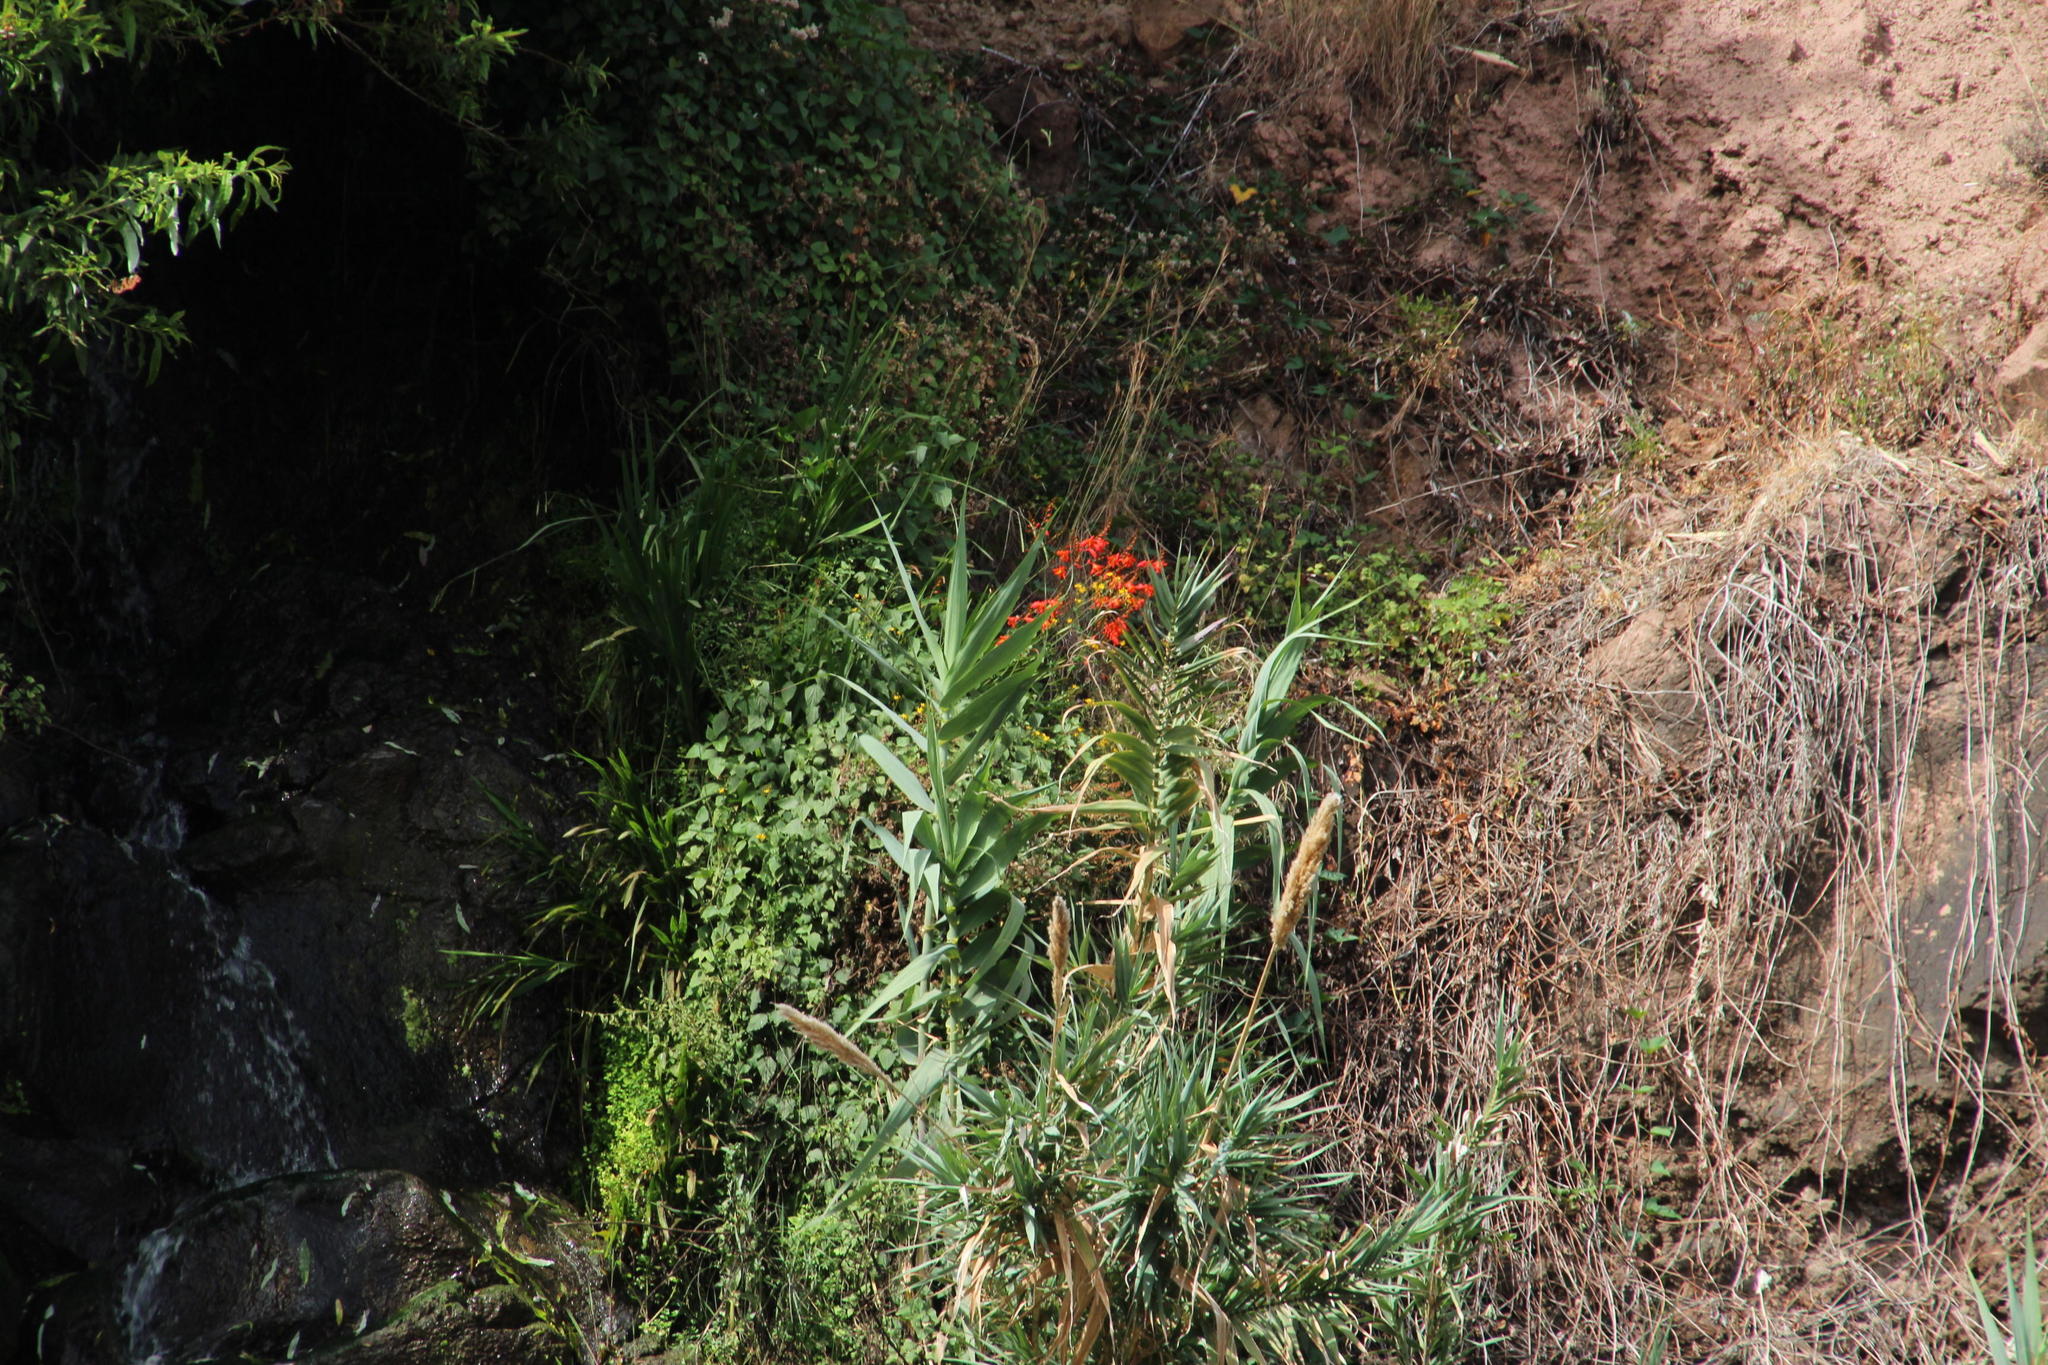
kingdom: Plantae
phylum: Tracheophyta
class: Liliopsida
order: Asparagales
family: Iridaceae
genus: Crocosmia
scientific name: Crocosmia crocosmiiflora
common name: Montbretia
